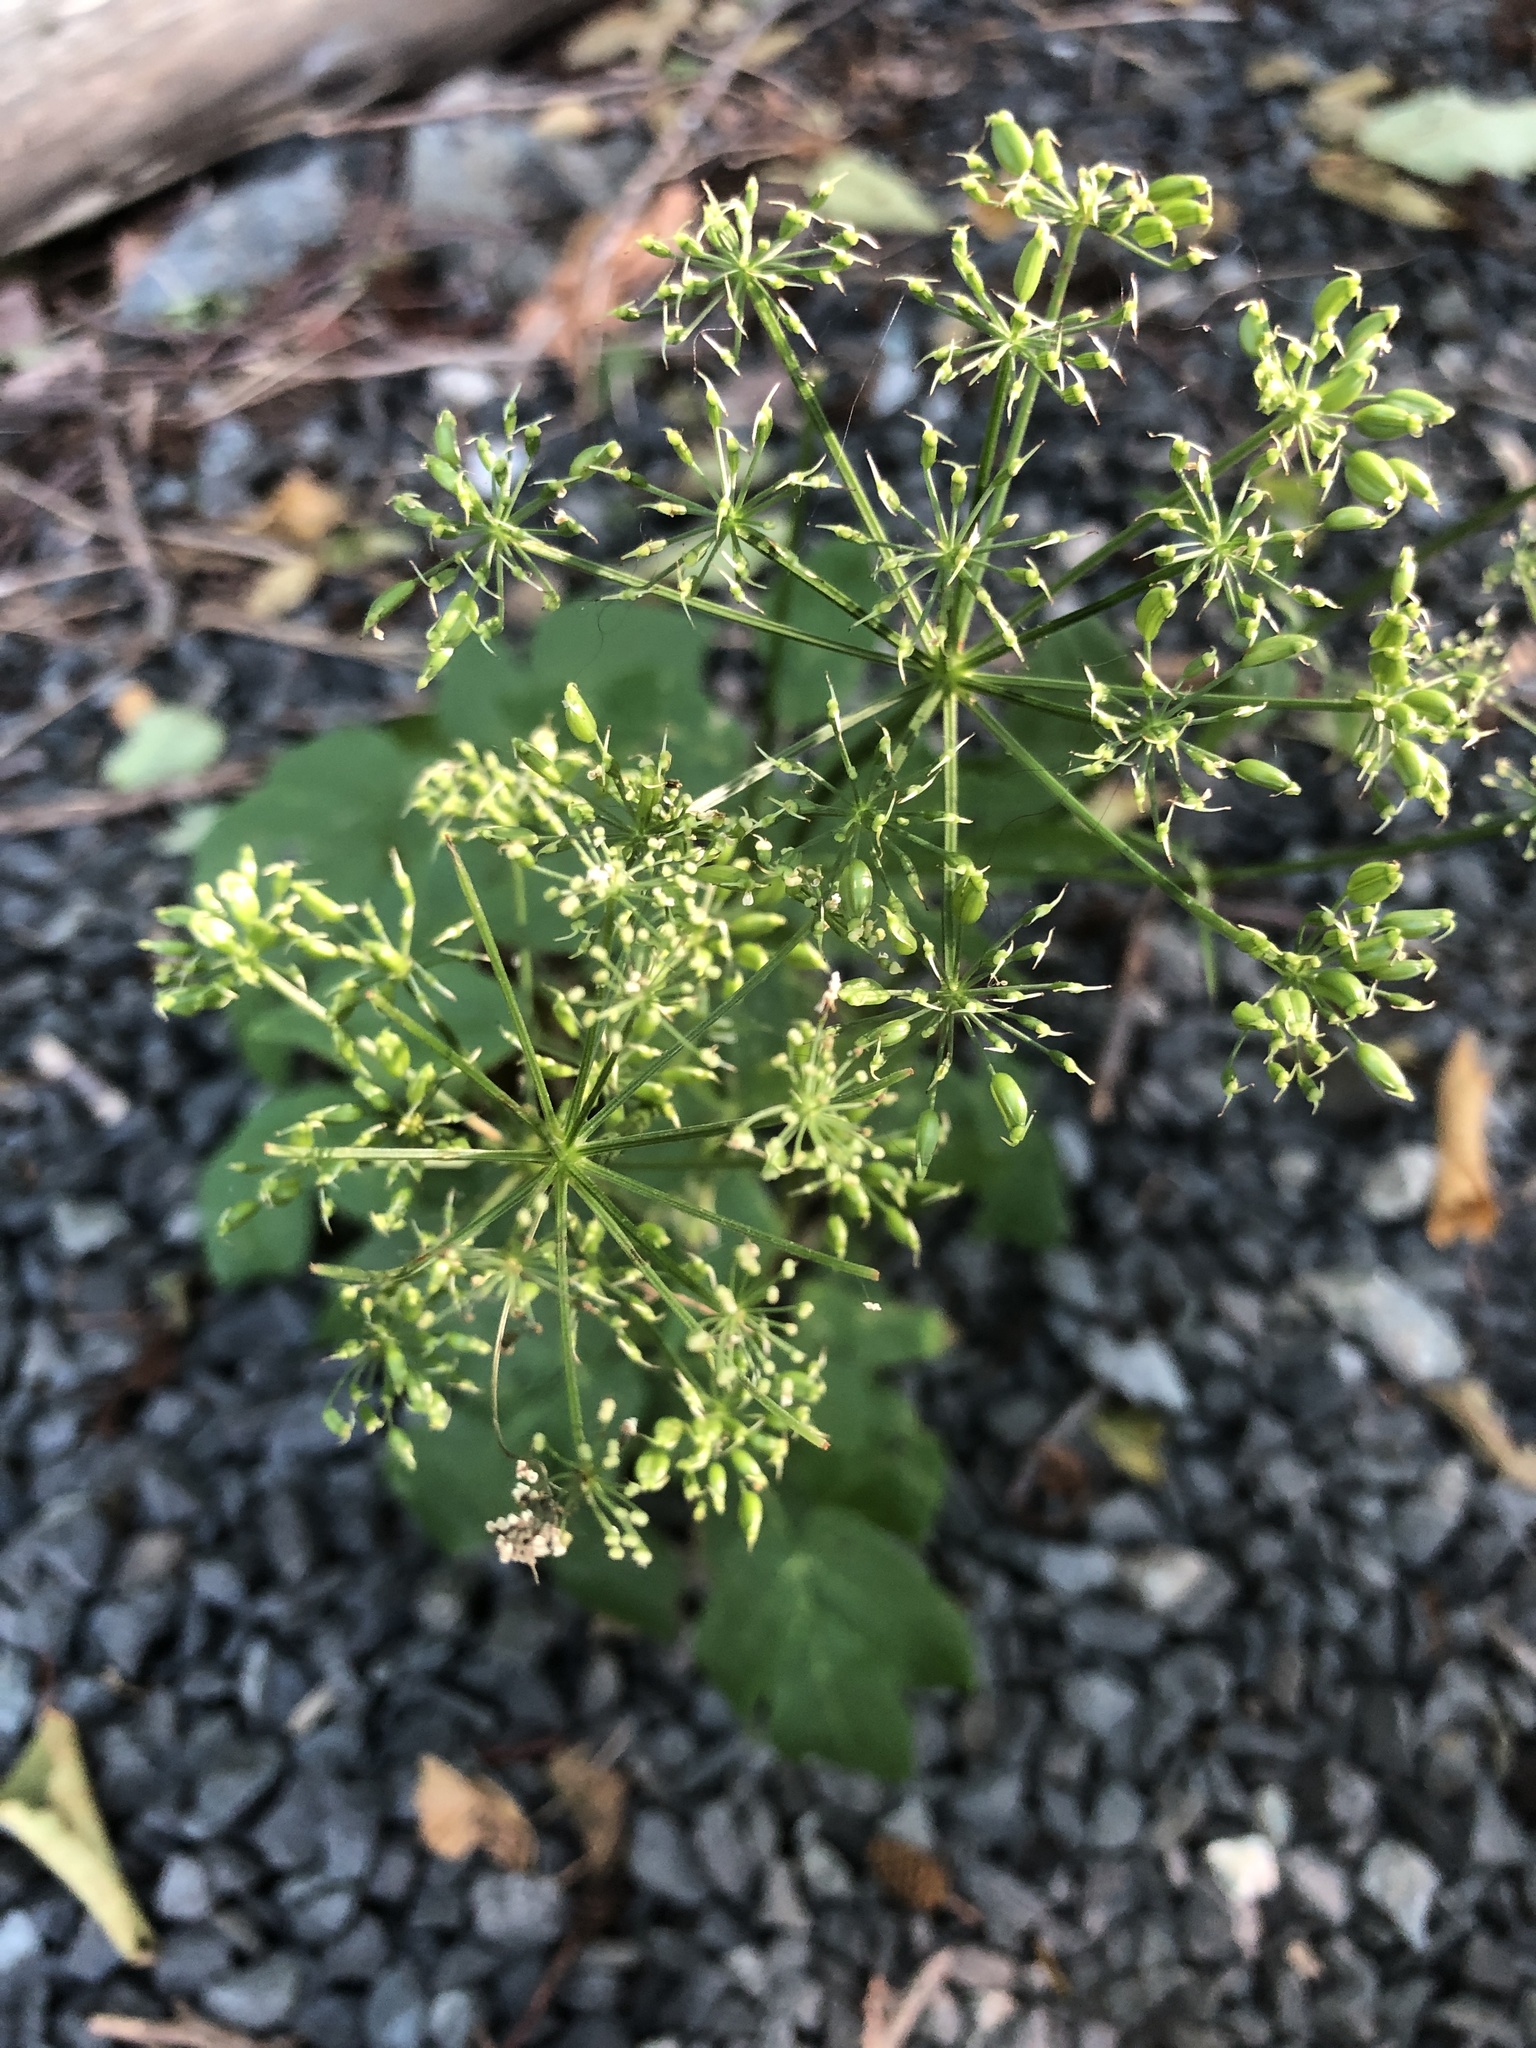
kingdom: Plantae
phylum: Tracheophyta
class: Magnoliopsida
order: Apiales
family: Apiaceae
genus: Aegopodium
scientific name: Aegopodium podagraria
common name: Ground-elder
